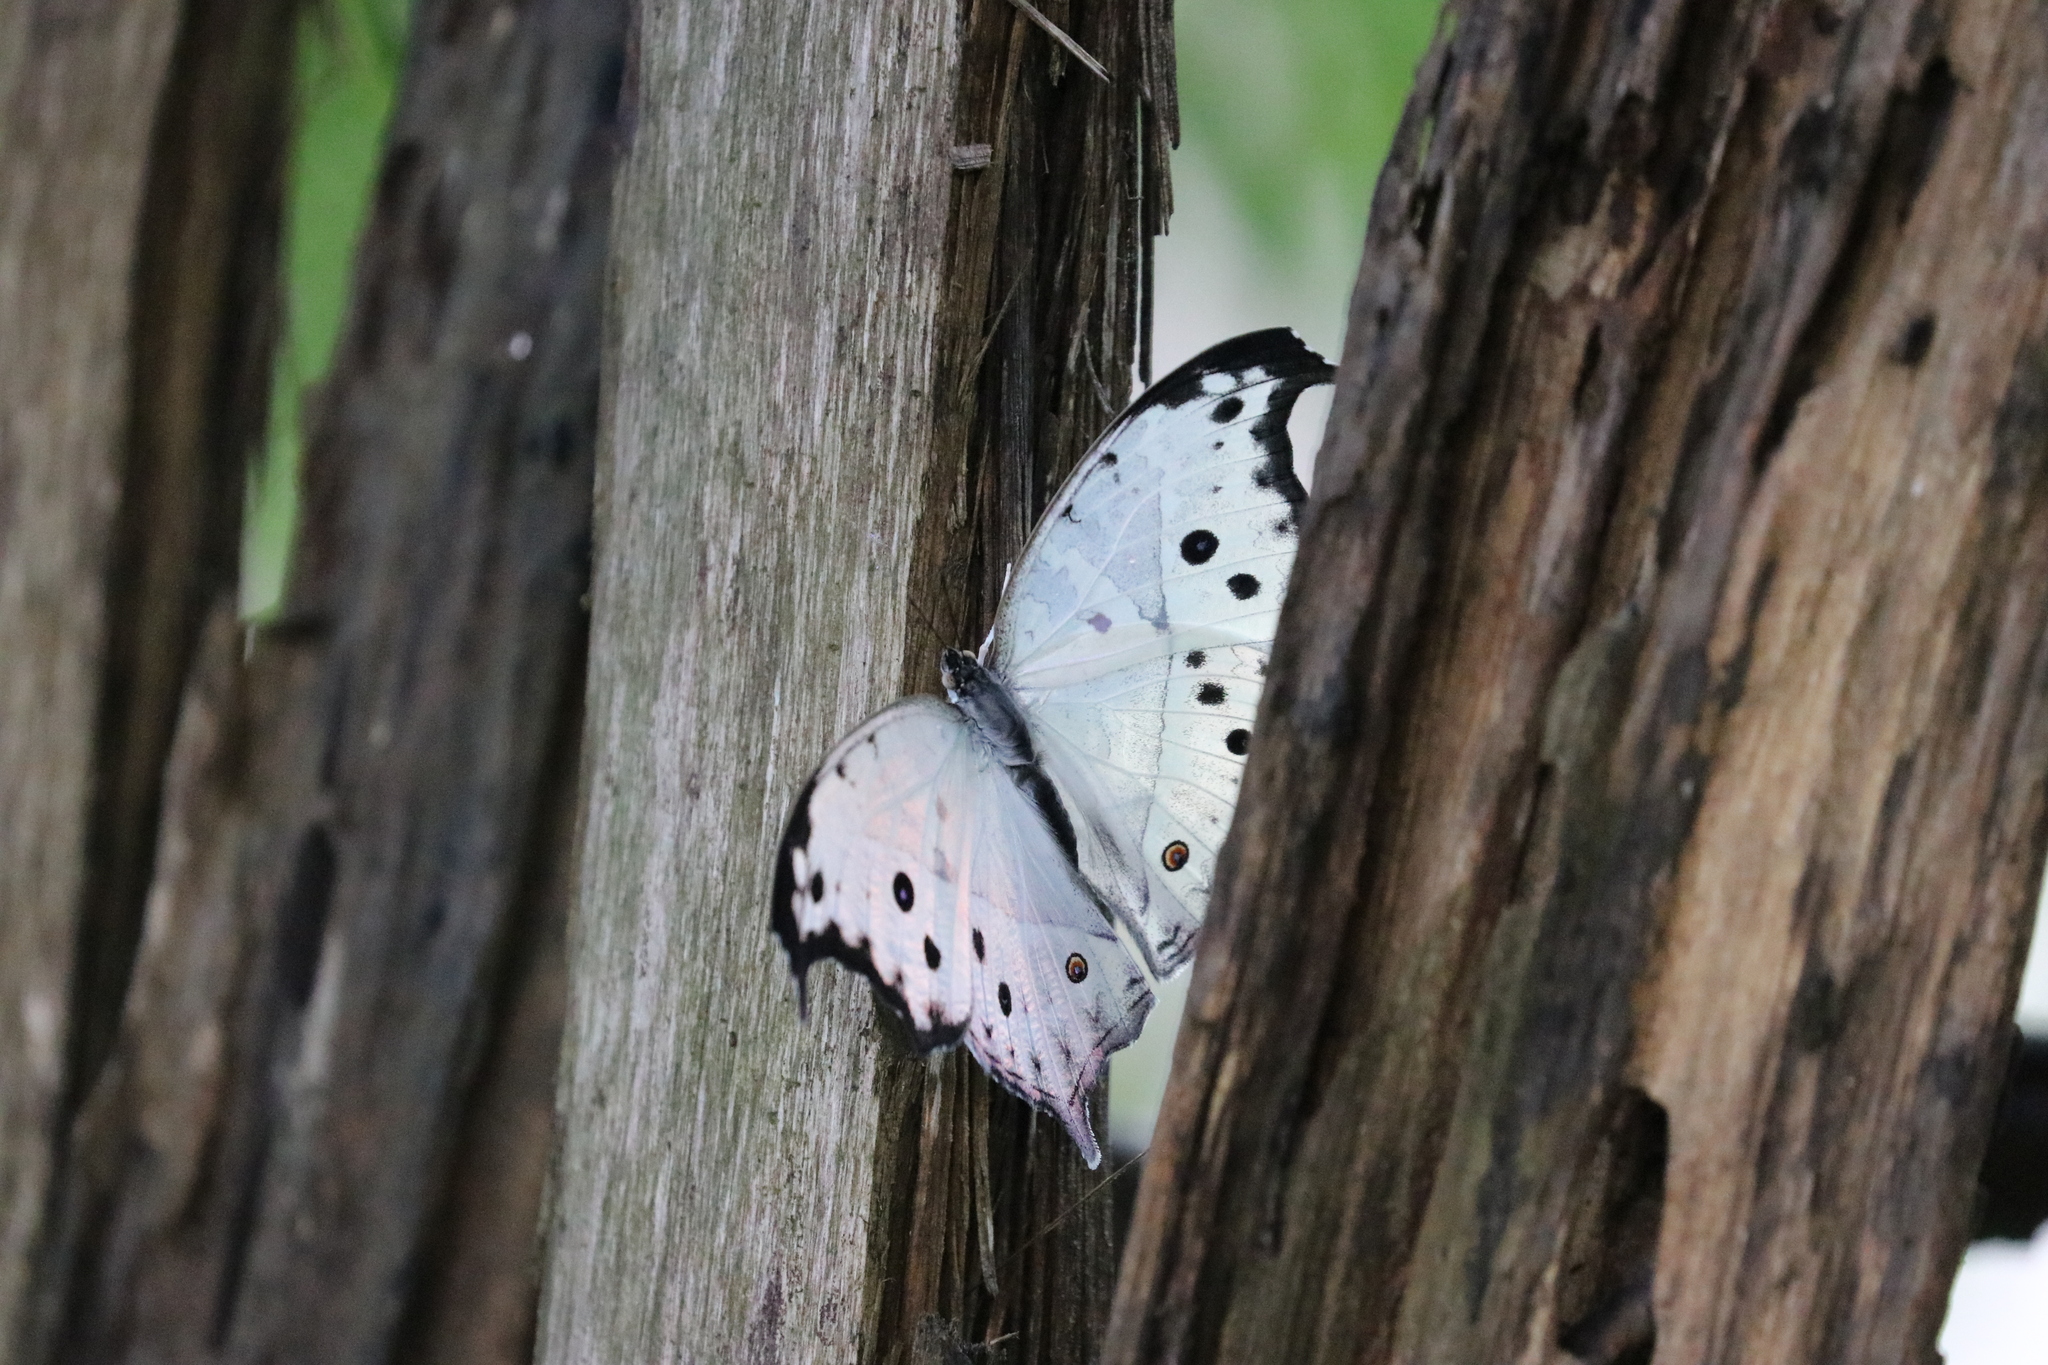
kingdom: Animalia
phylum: Arthropoda
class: Insecta
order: Lepidoptera
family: Nymphalidae
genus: Salamis
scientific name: Salamis Protogoniomorpha parhassus
